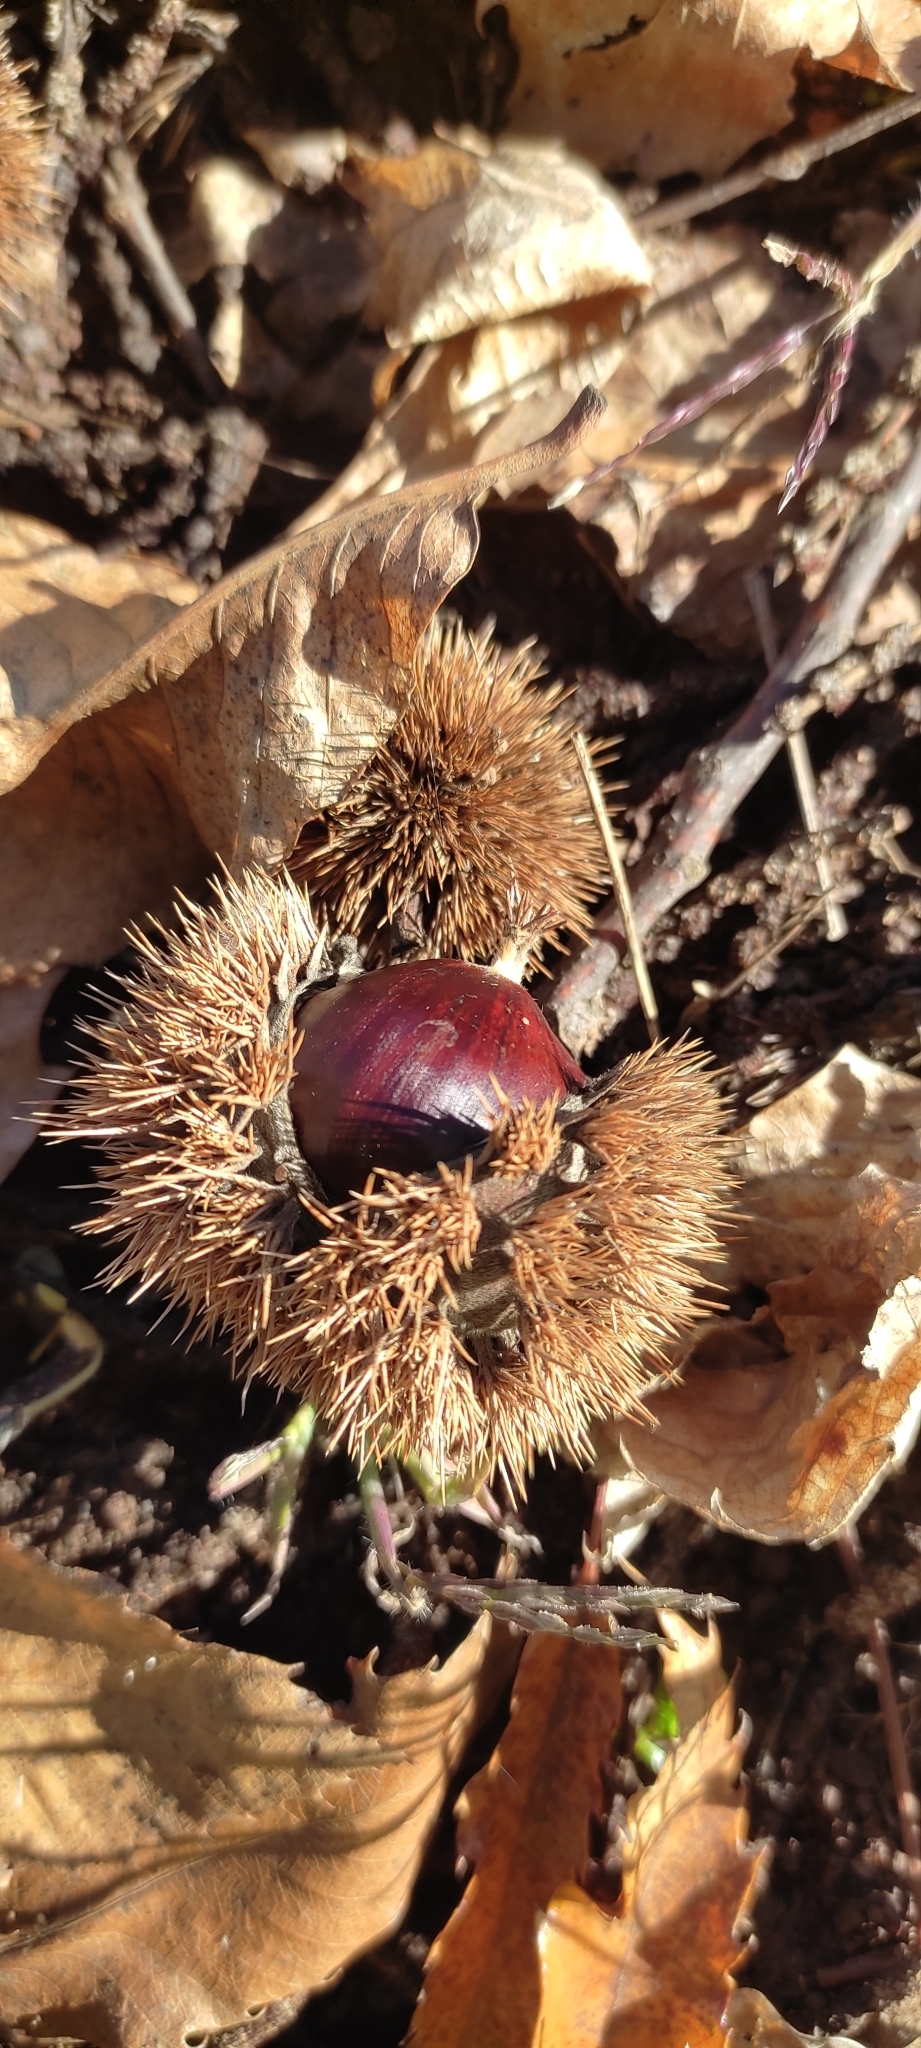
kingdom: Plantae
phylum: Tracheophyta
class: Magnoliopsida
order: Fagales
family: Fagaceae
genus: Castanea
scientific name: Castanea sativa
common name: Sweet chestnut
